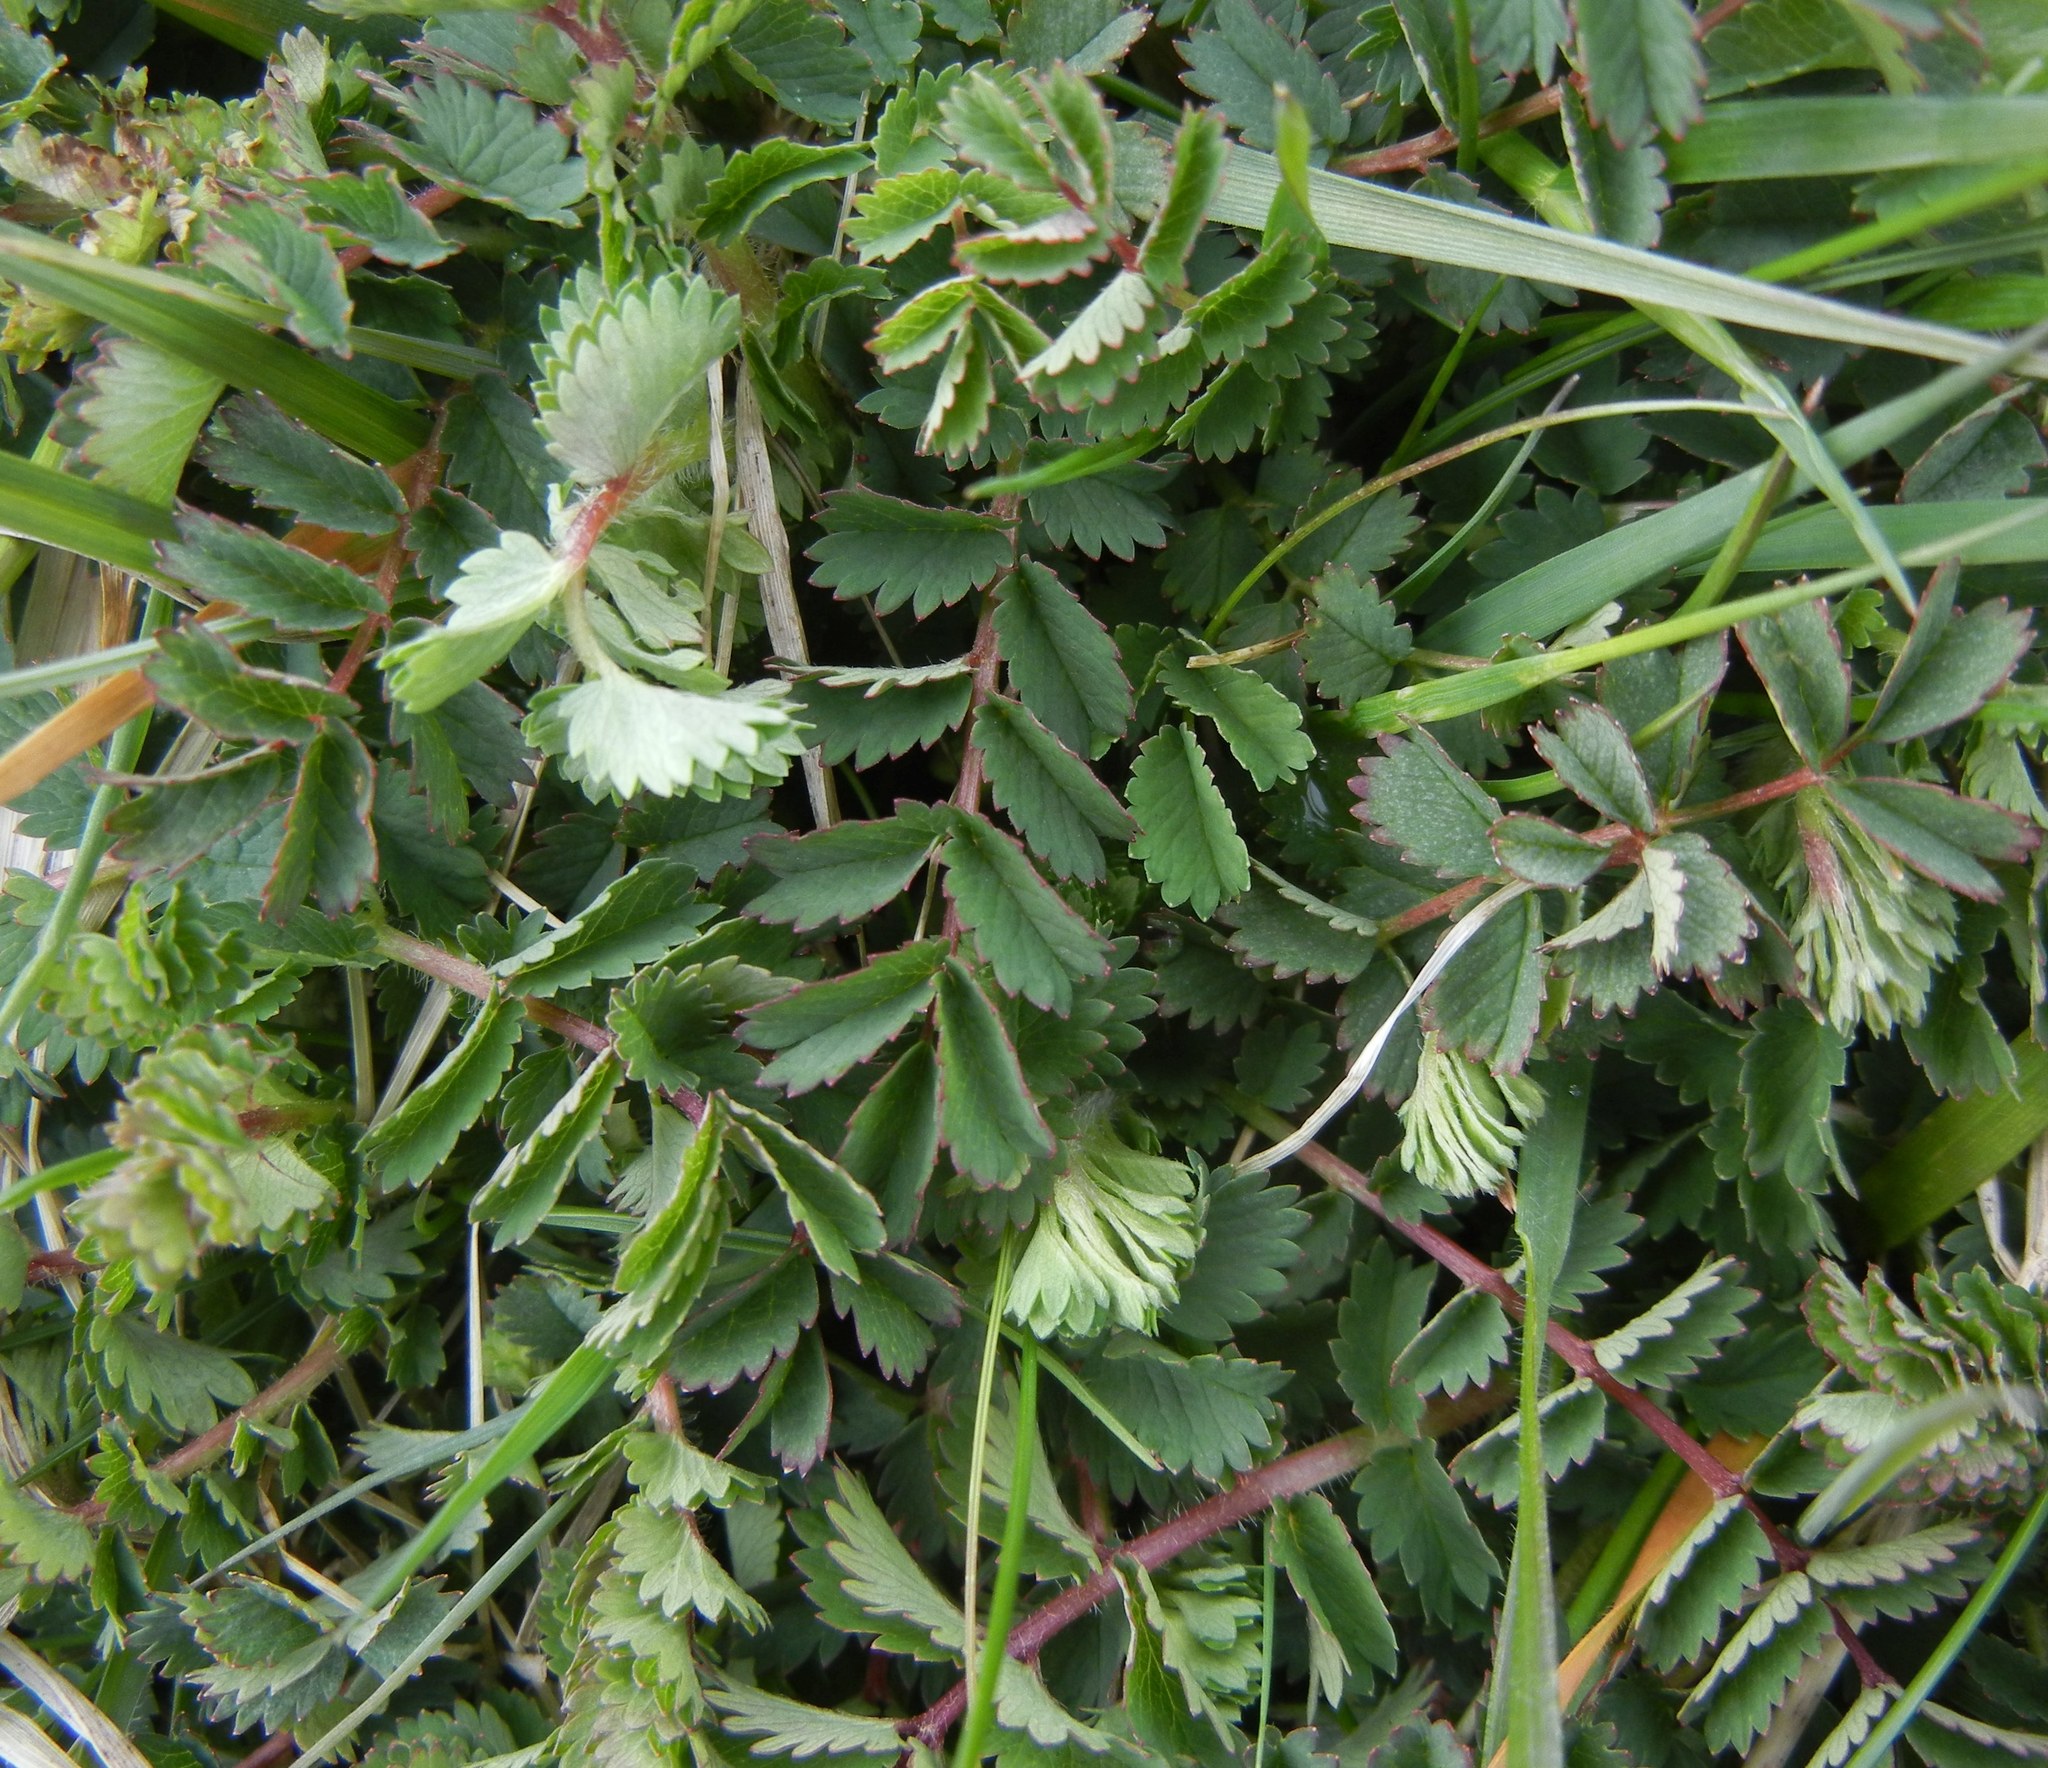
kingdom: Plantae
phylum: Tracheophyta
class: Magnoliopsida
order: Rosales
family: Rosaceae
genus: Poterium
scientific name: Poterium sanguisorba
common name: Salad burnet
